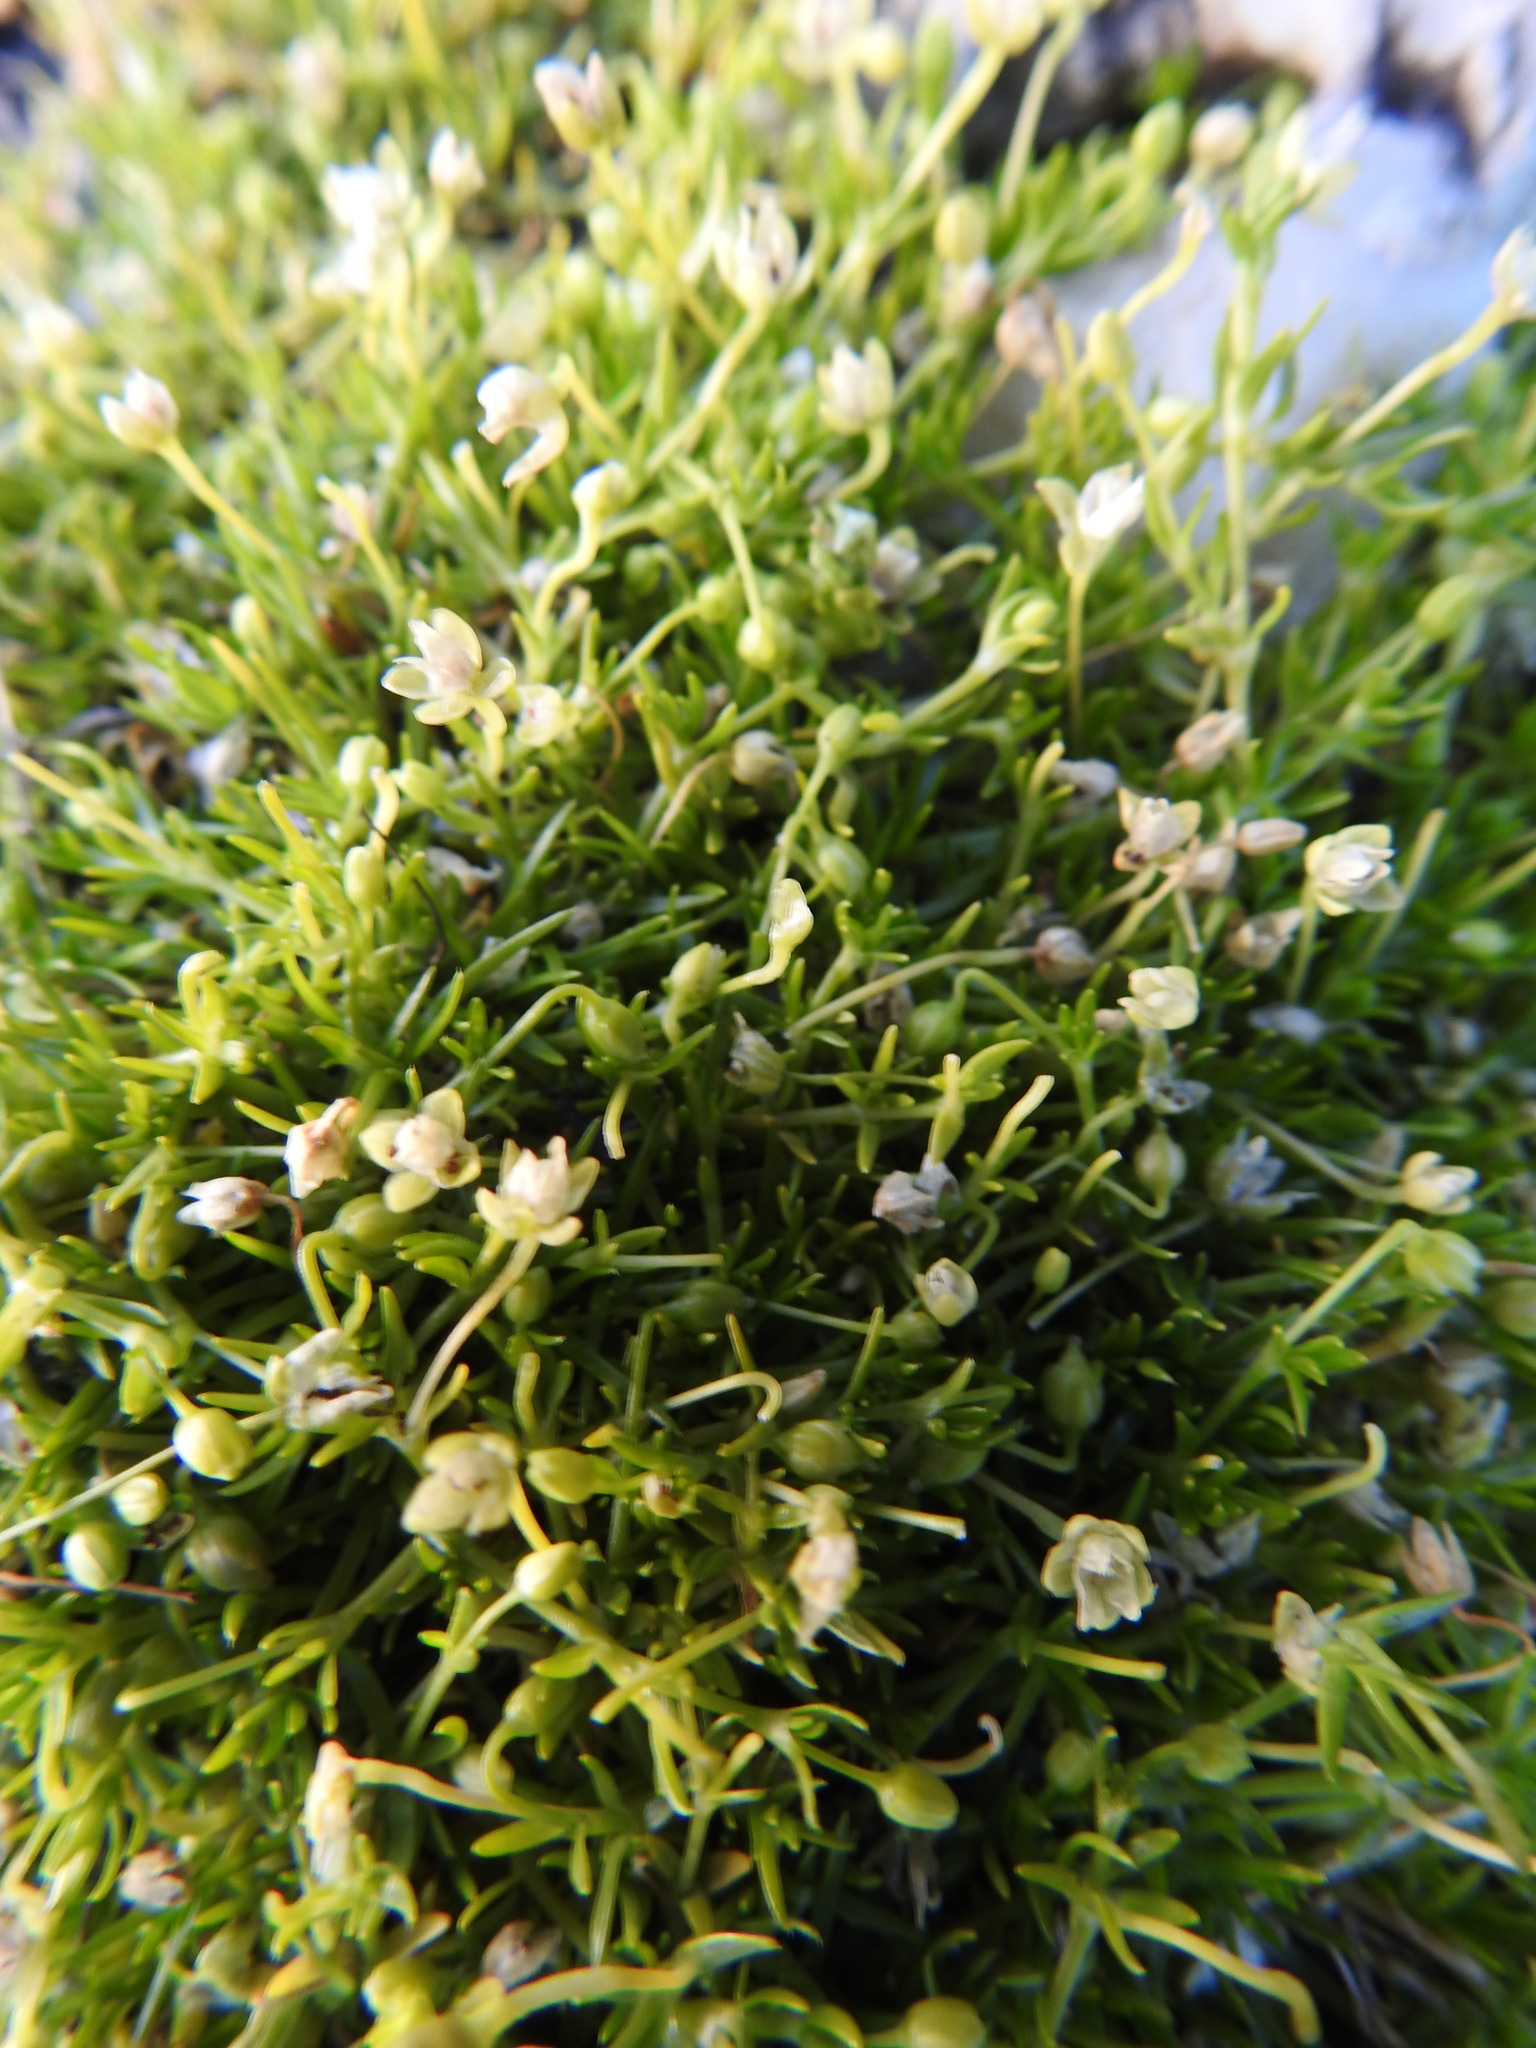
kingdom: Plantae
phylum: Tracheophyta
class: Magnoliopsida
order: Caryophyllales
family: Caryophyllaceae
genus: Sagina
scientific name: Sagina procumbens
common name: Procumbent pearlwort
